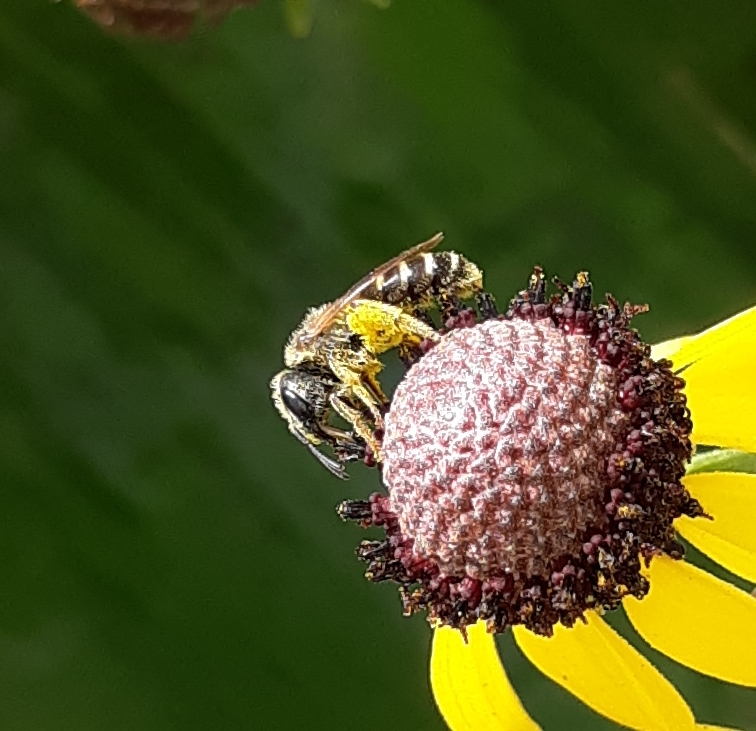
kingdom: Animalia
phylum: Arthropoda
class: Insecta
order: Hymenoptera
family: Halictidae
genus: Halictus
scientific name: Halictus ligatus
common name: Ligated furrow bee
